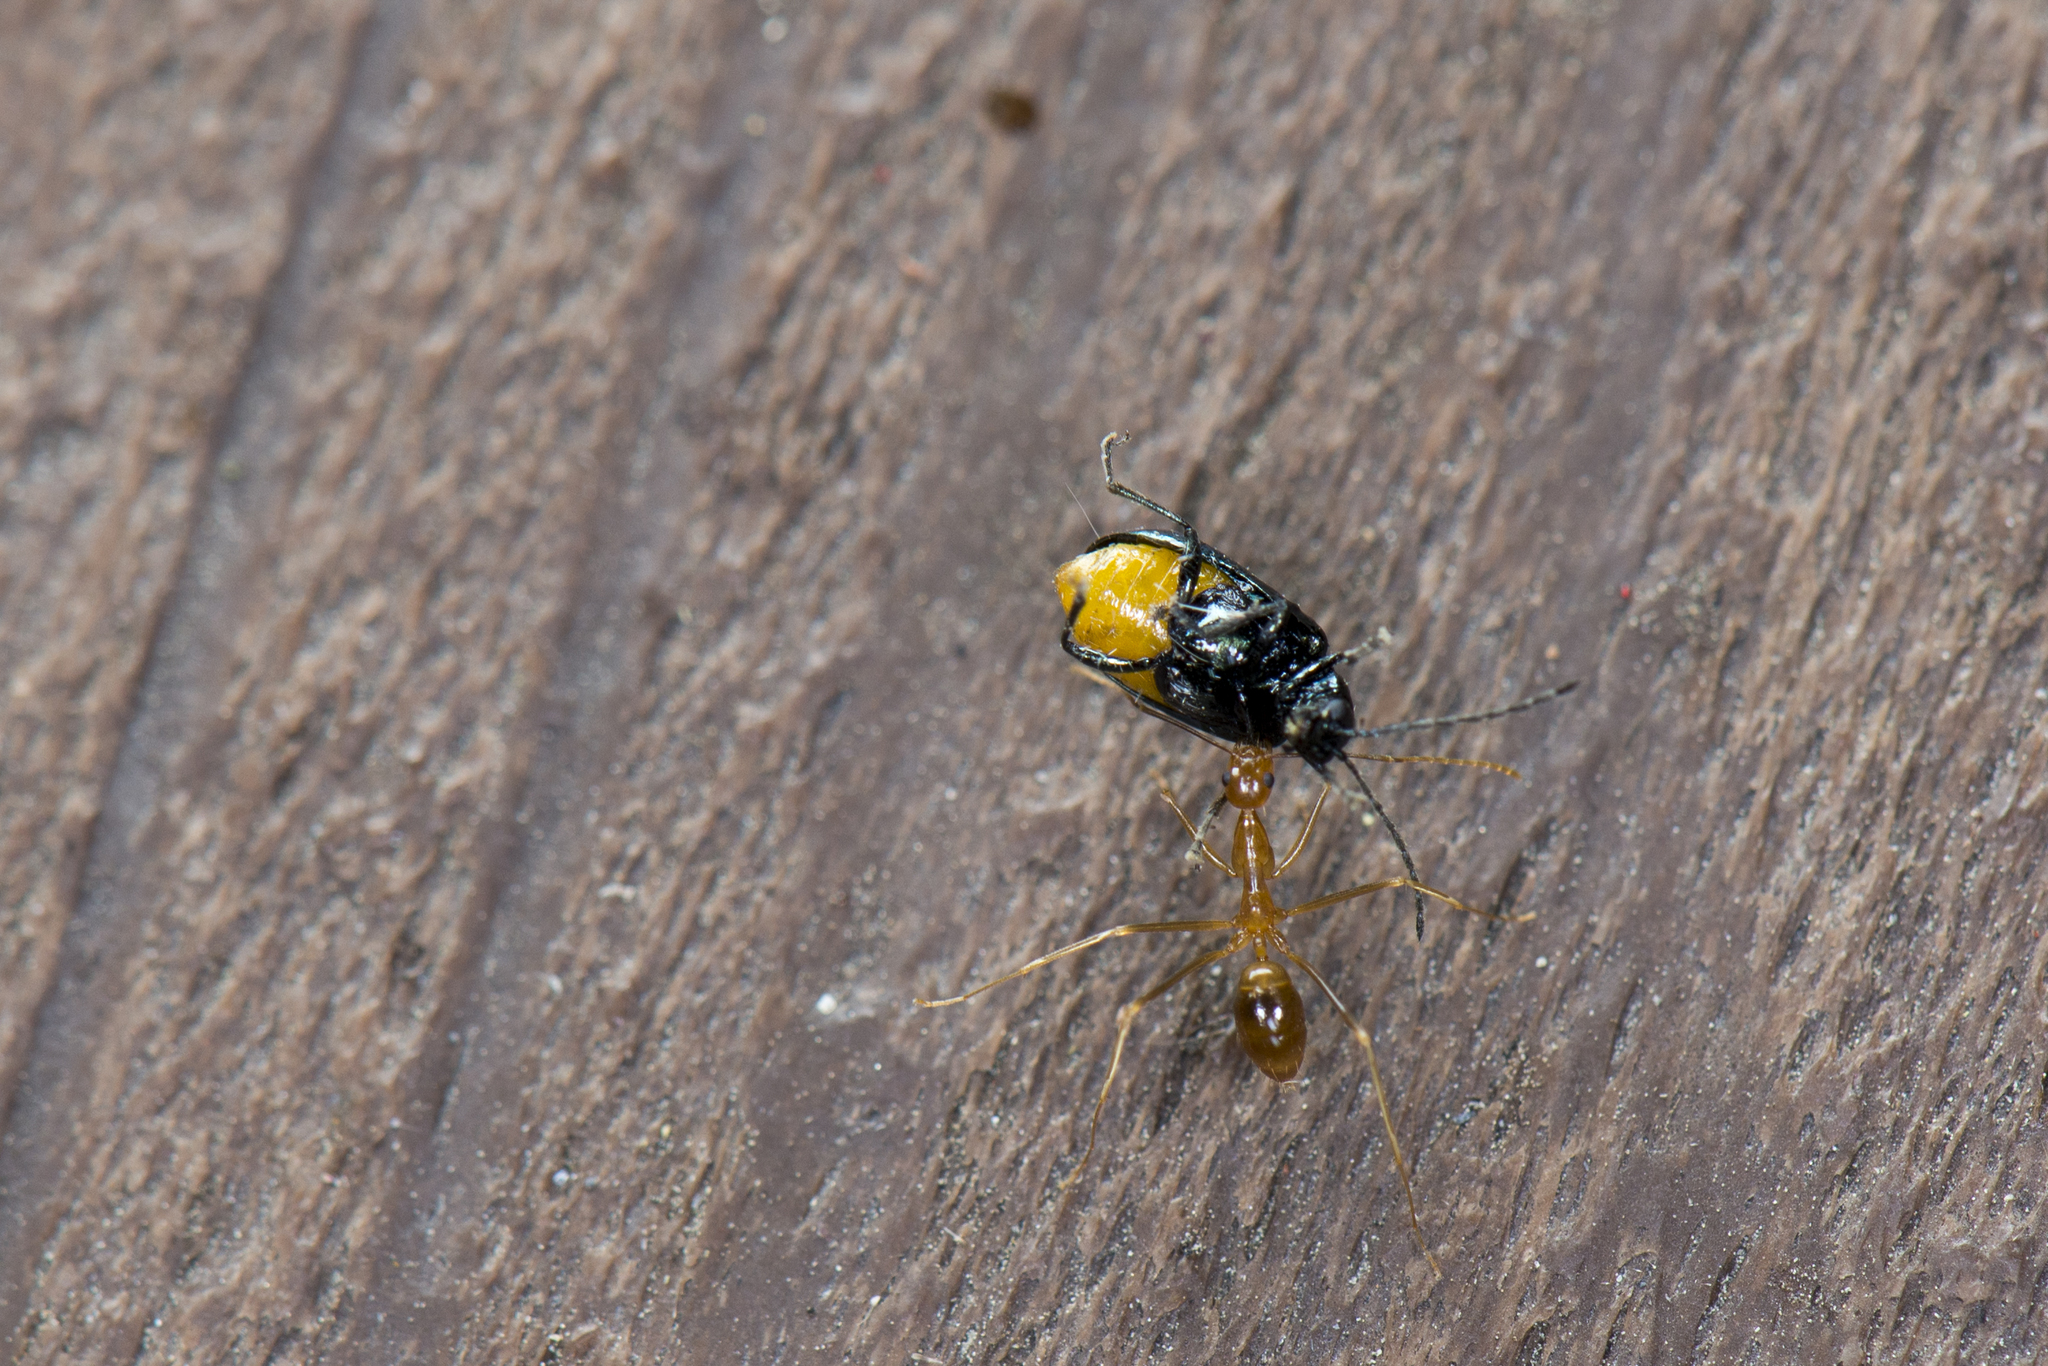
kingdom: Animalia
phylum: Arthropoda
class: Insecta
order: Hymenoptera
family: Formicidae
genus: Anoplolepis
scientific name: Anoplolepis gracilipes
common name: Ant
